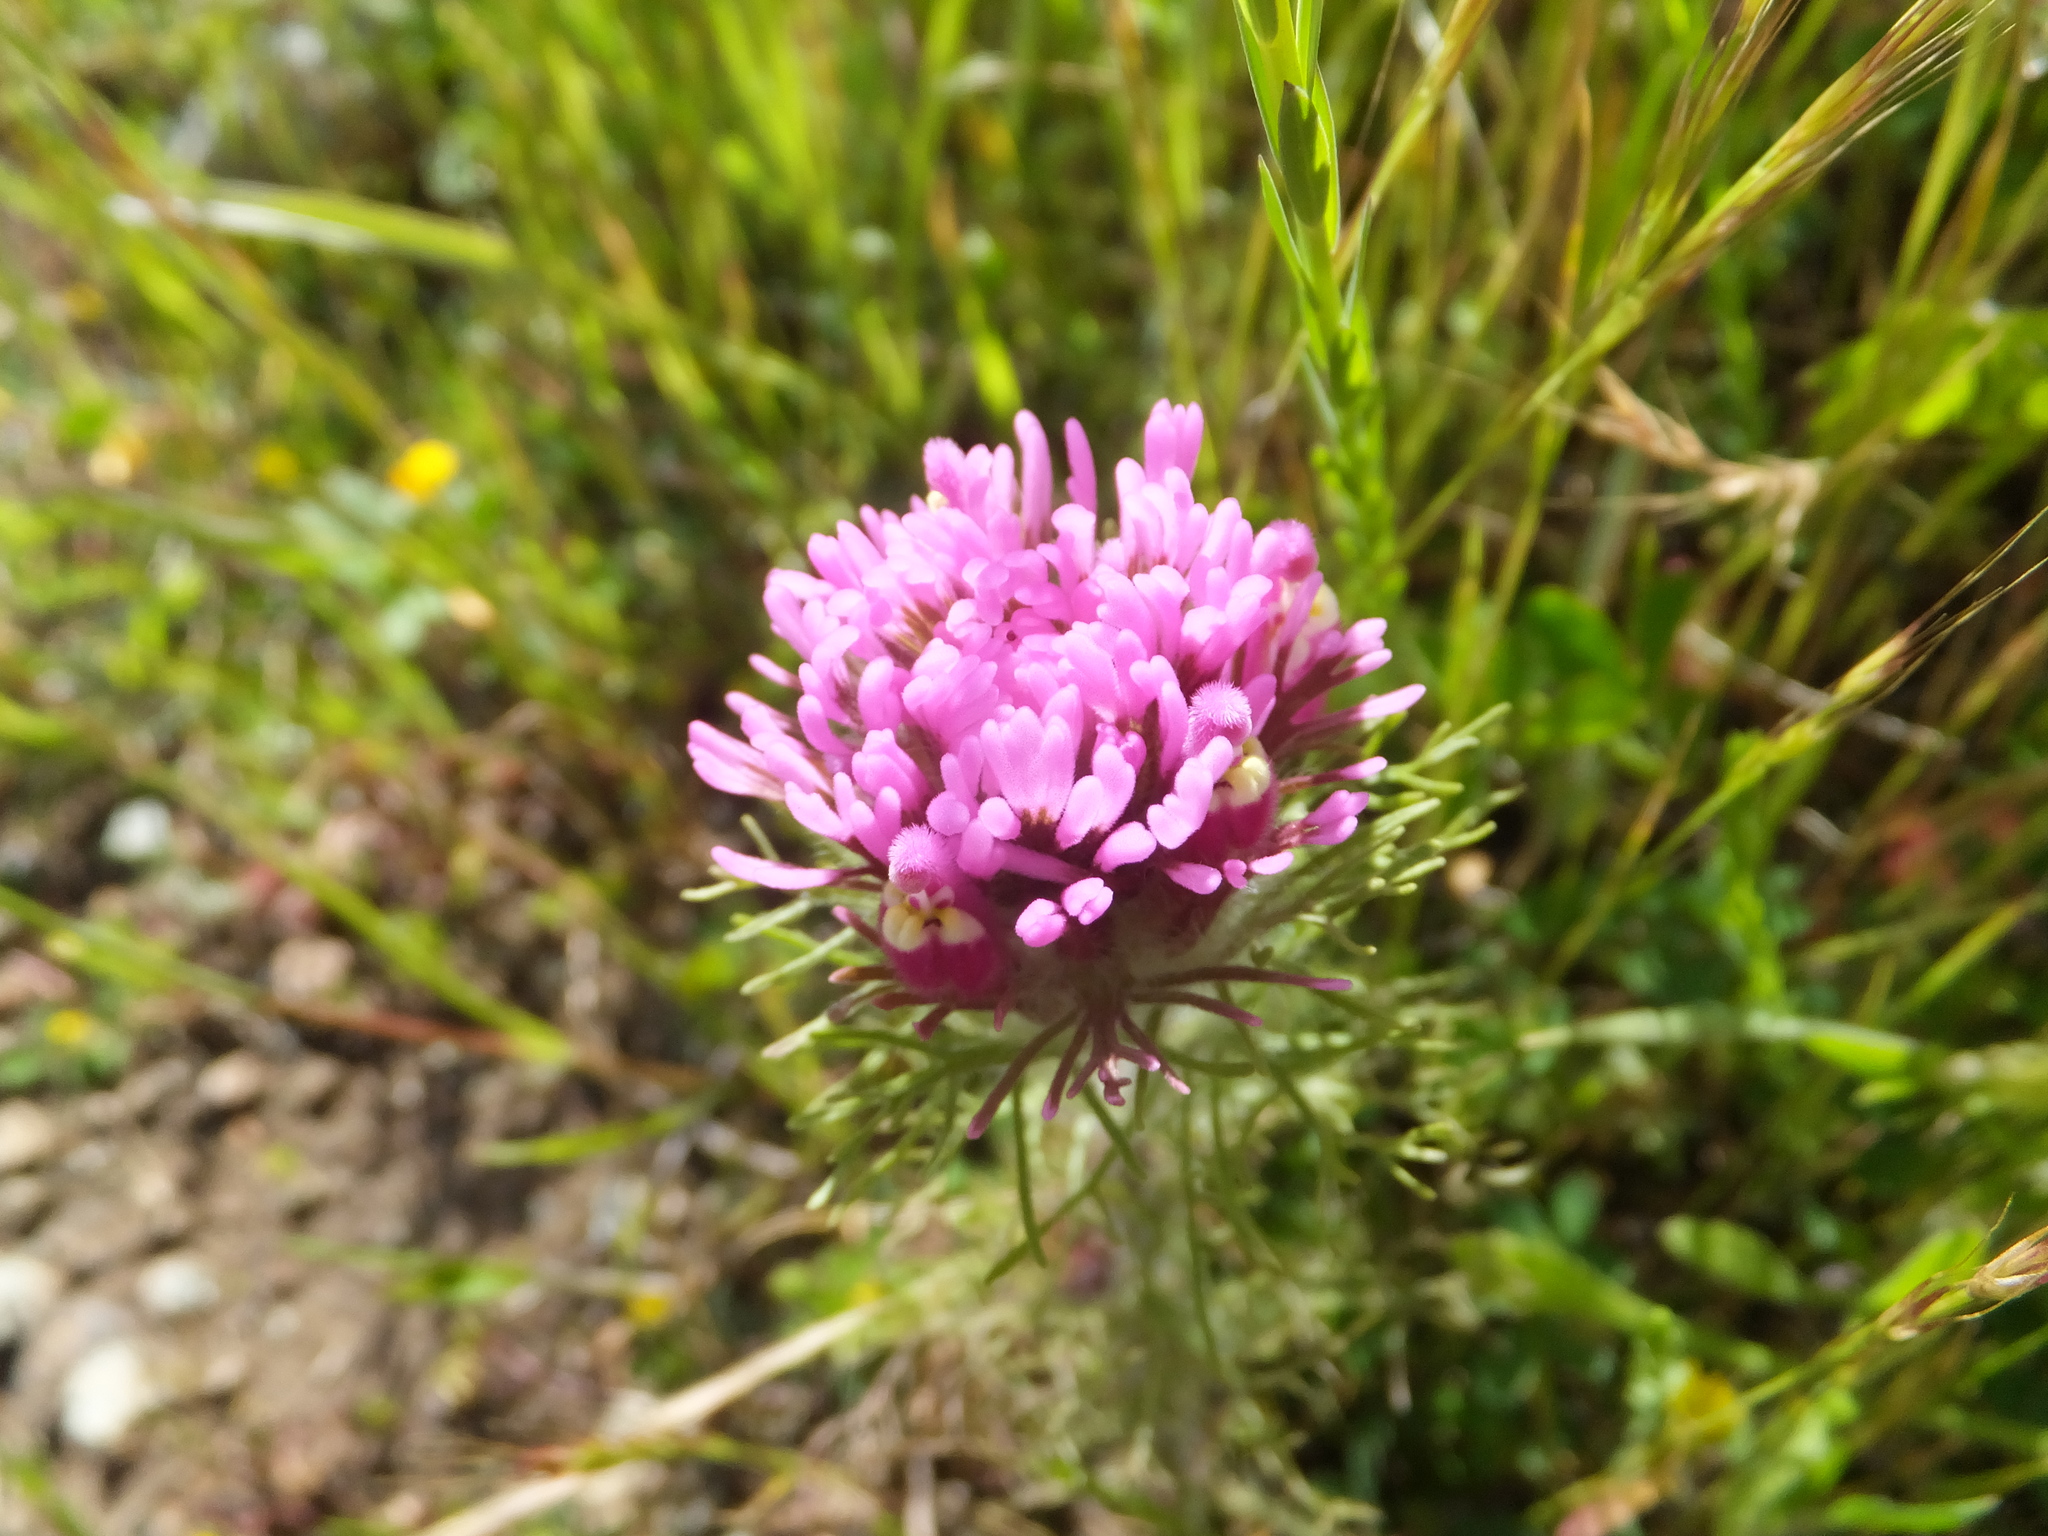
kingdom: Plantae
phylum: Tracheophyta
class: Magnoliopsida
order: Lamiales
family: Orobanchaceae
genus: Castilleja
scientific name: Castilleja exserta
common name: Purple owl-clover
